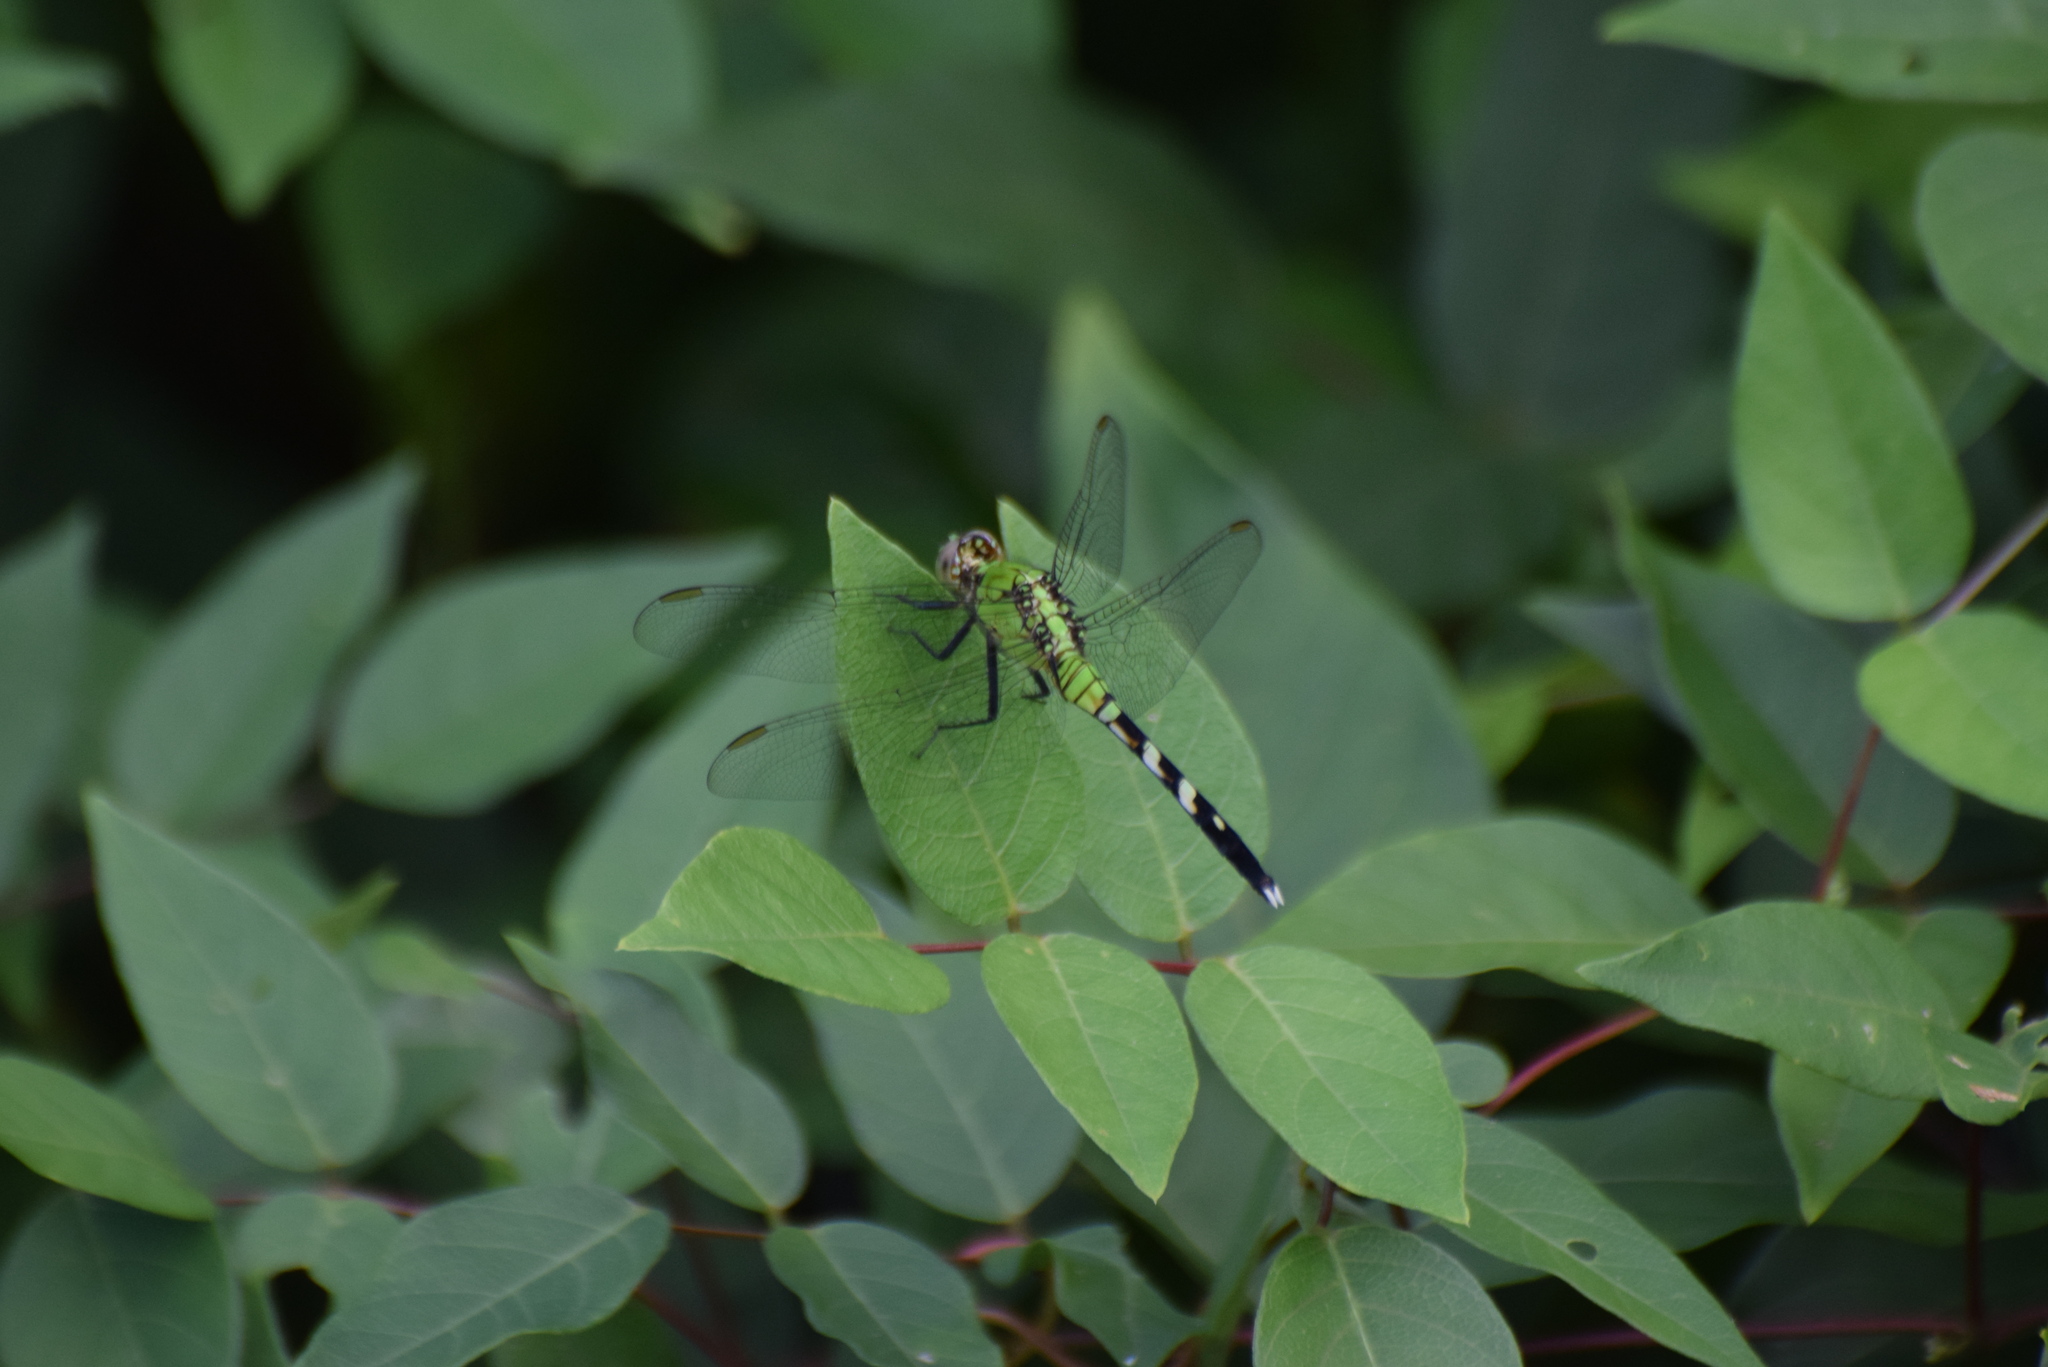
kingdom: Animalia
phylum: Arthropoda
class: Insecta
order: Odonata
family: Libellulidae
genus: Erythemis
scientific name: Erythemis simplicicollis
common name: Eastern pondhawk
